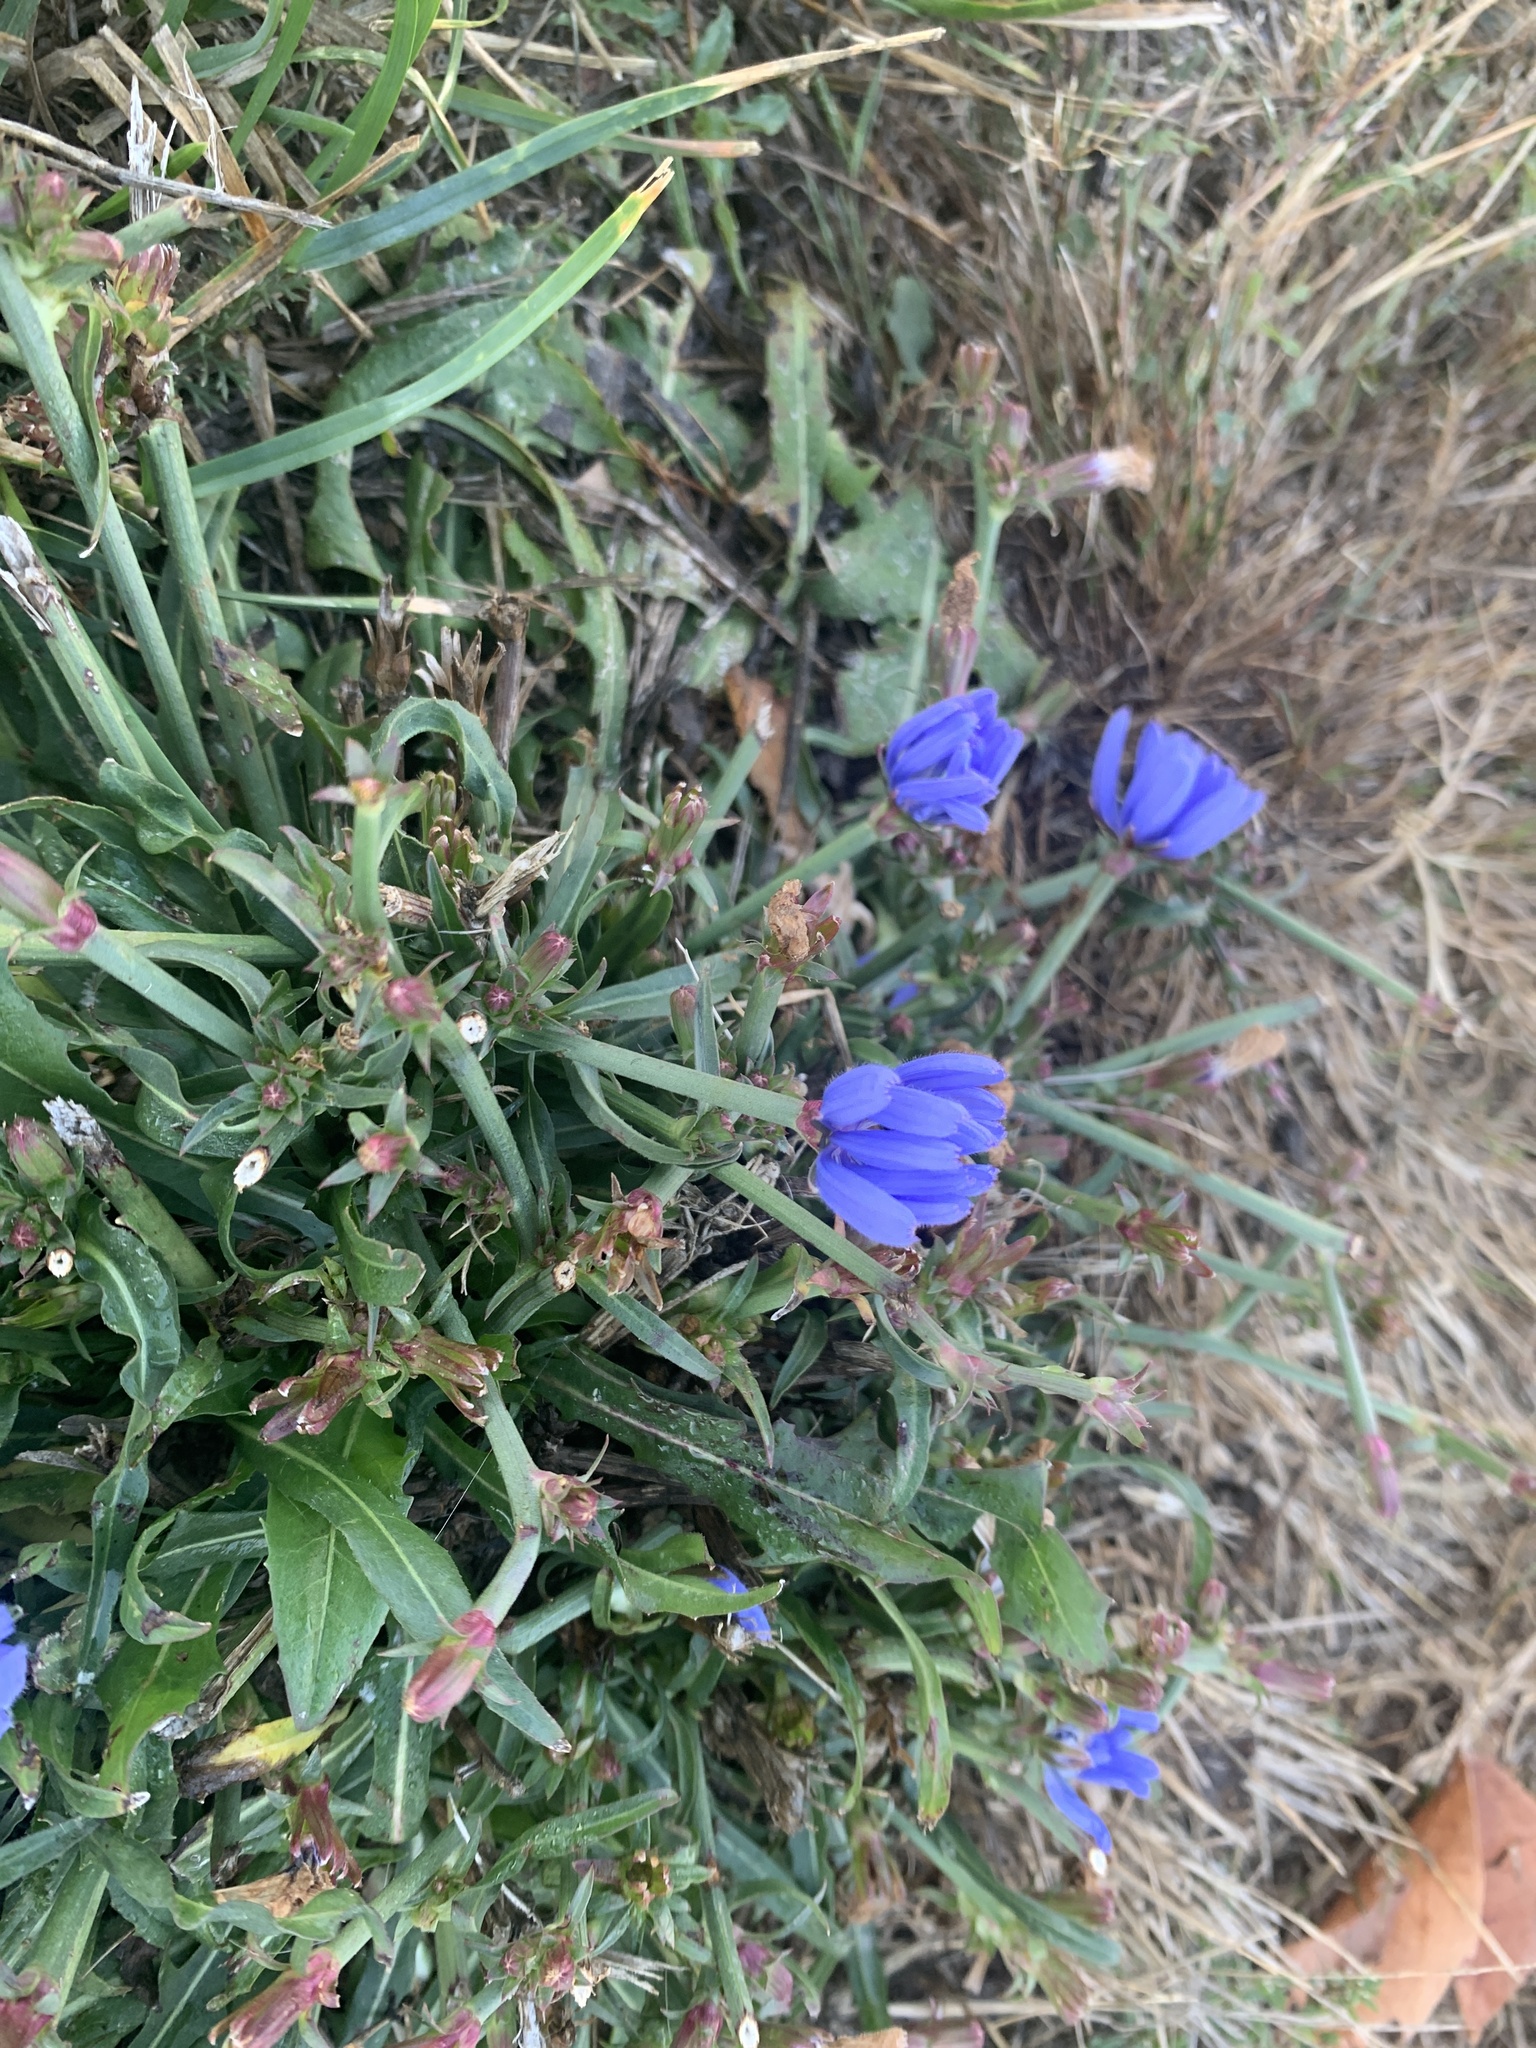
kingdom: Plantae
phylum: Tracheophyta
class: Magnoliopsida
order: Asterales
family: Asteraceae
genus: Cichorium
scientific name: Cichorium intybus
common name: Chicory
